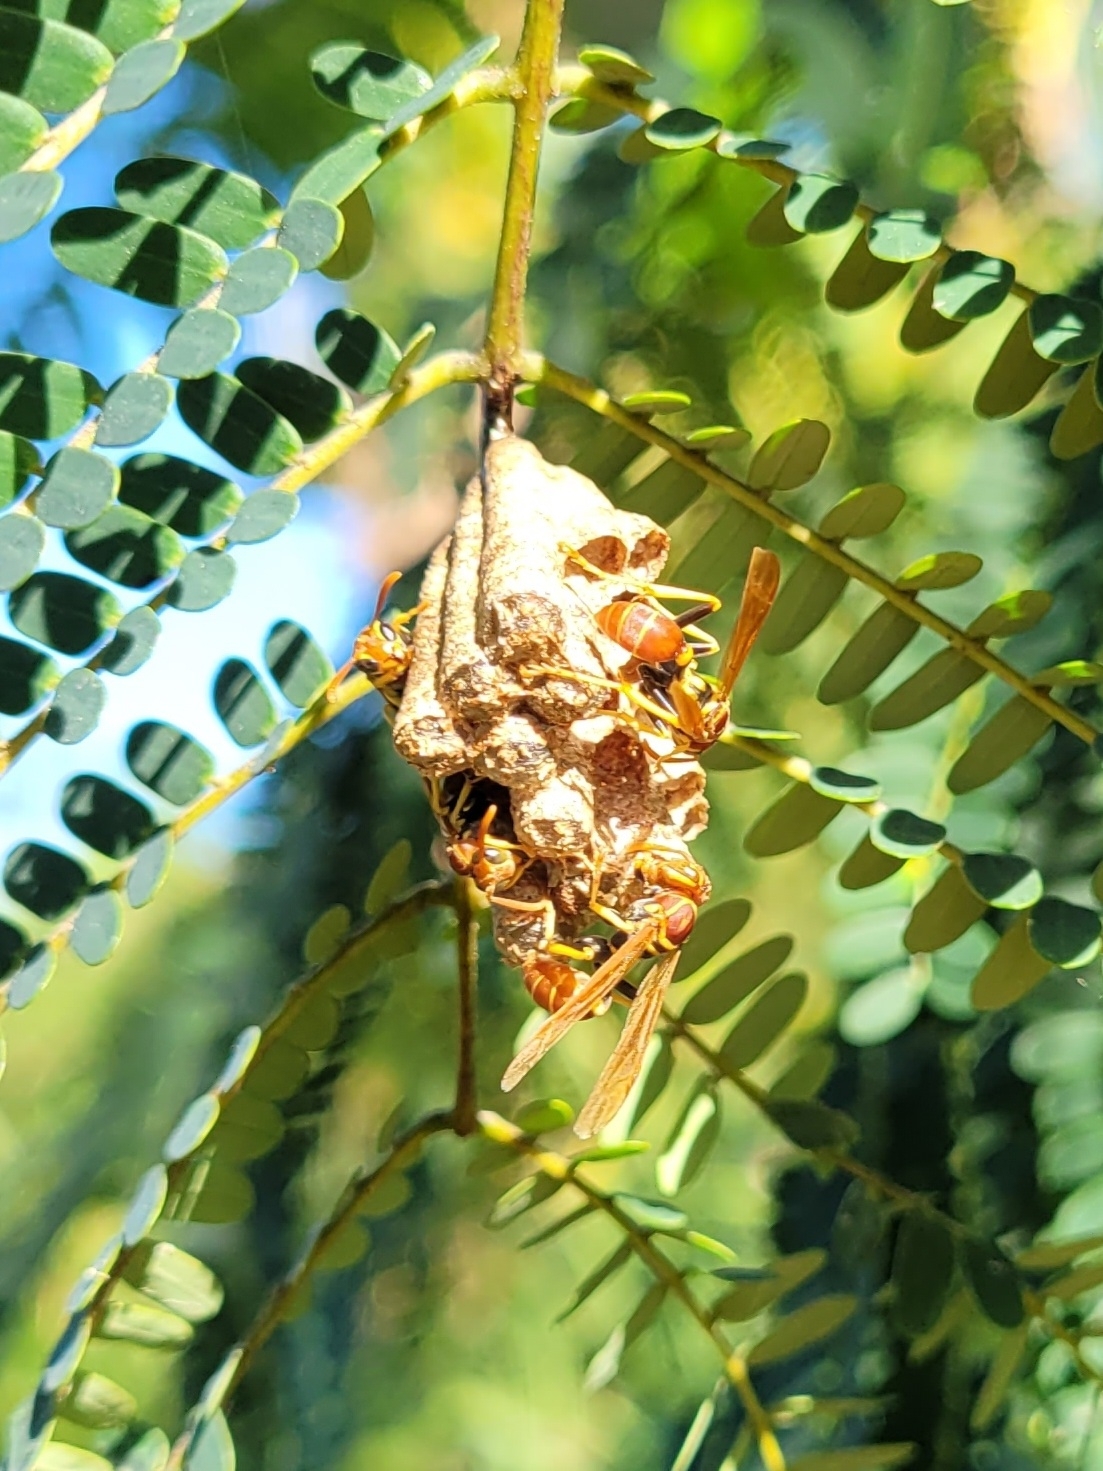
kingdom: Animalia
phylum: Arthropoda
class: Insecta
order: Hymenoptera
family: Vespidae
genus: Mischocyttarus
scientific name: Mischocyttarus phthisicus
